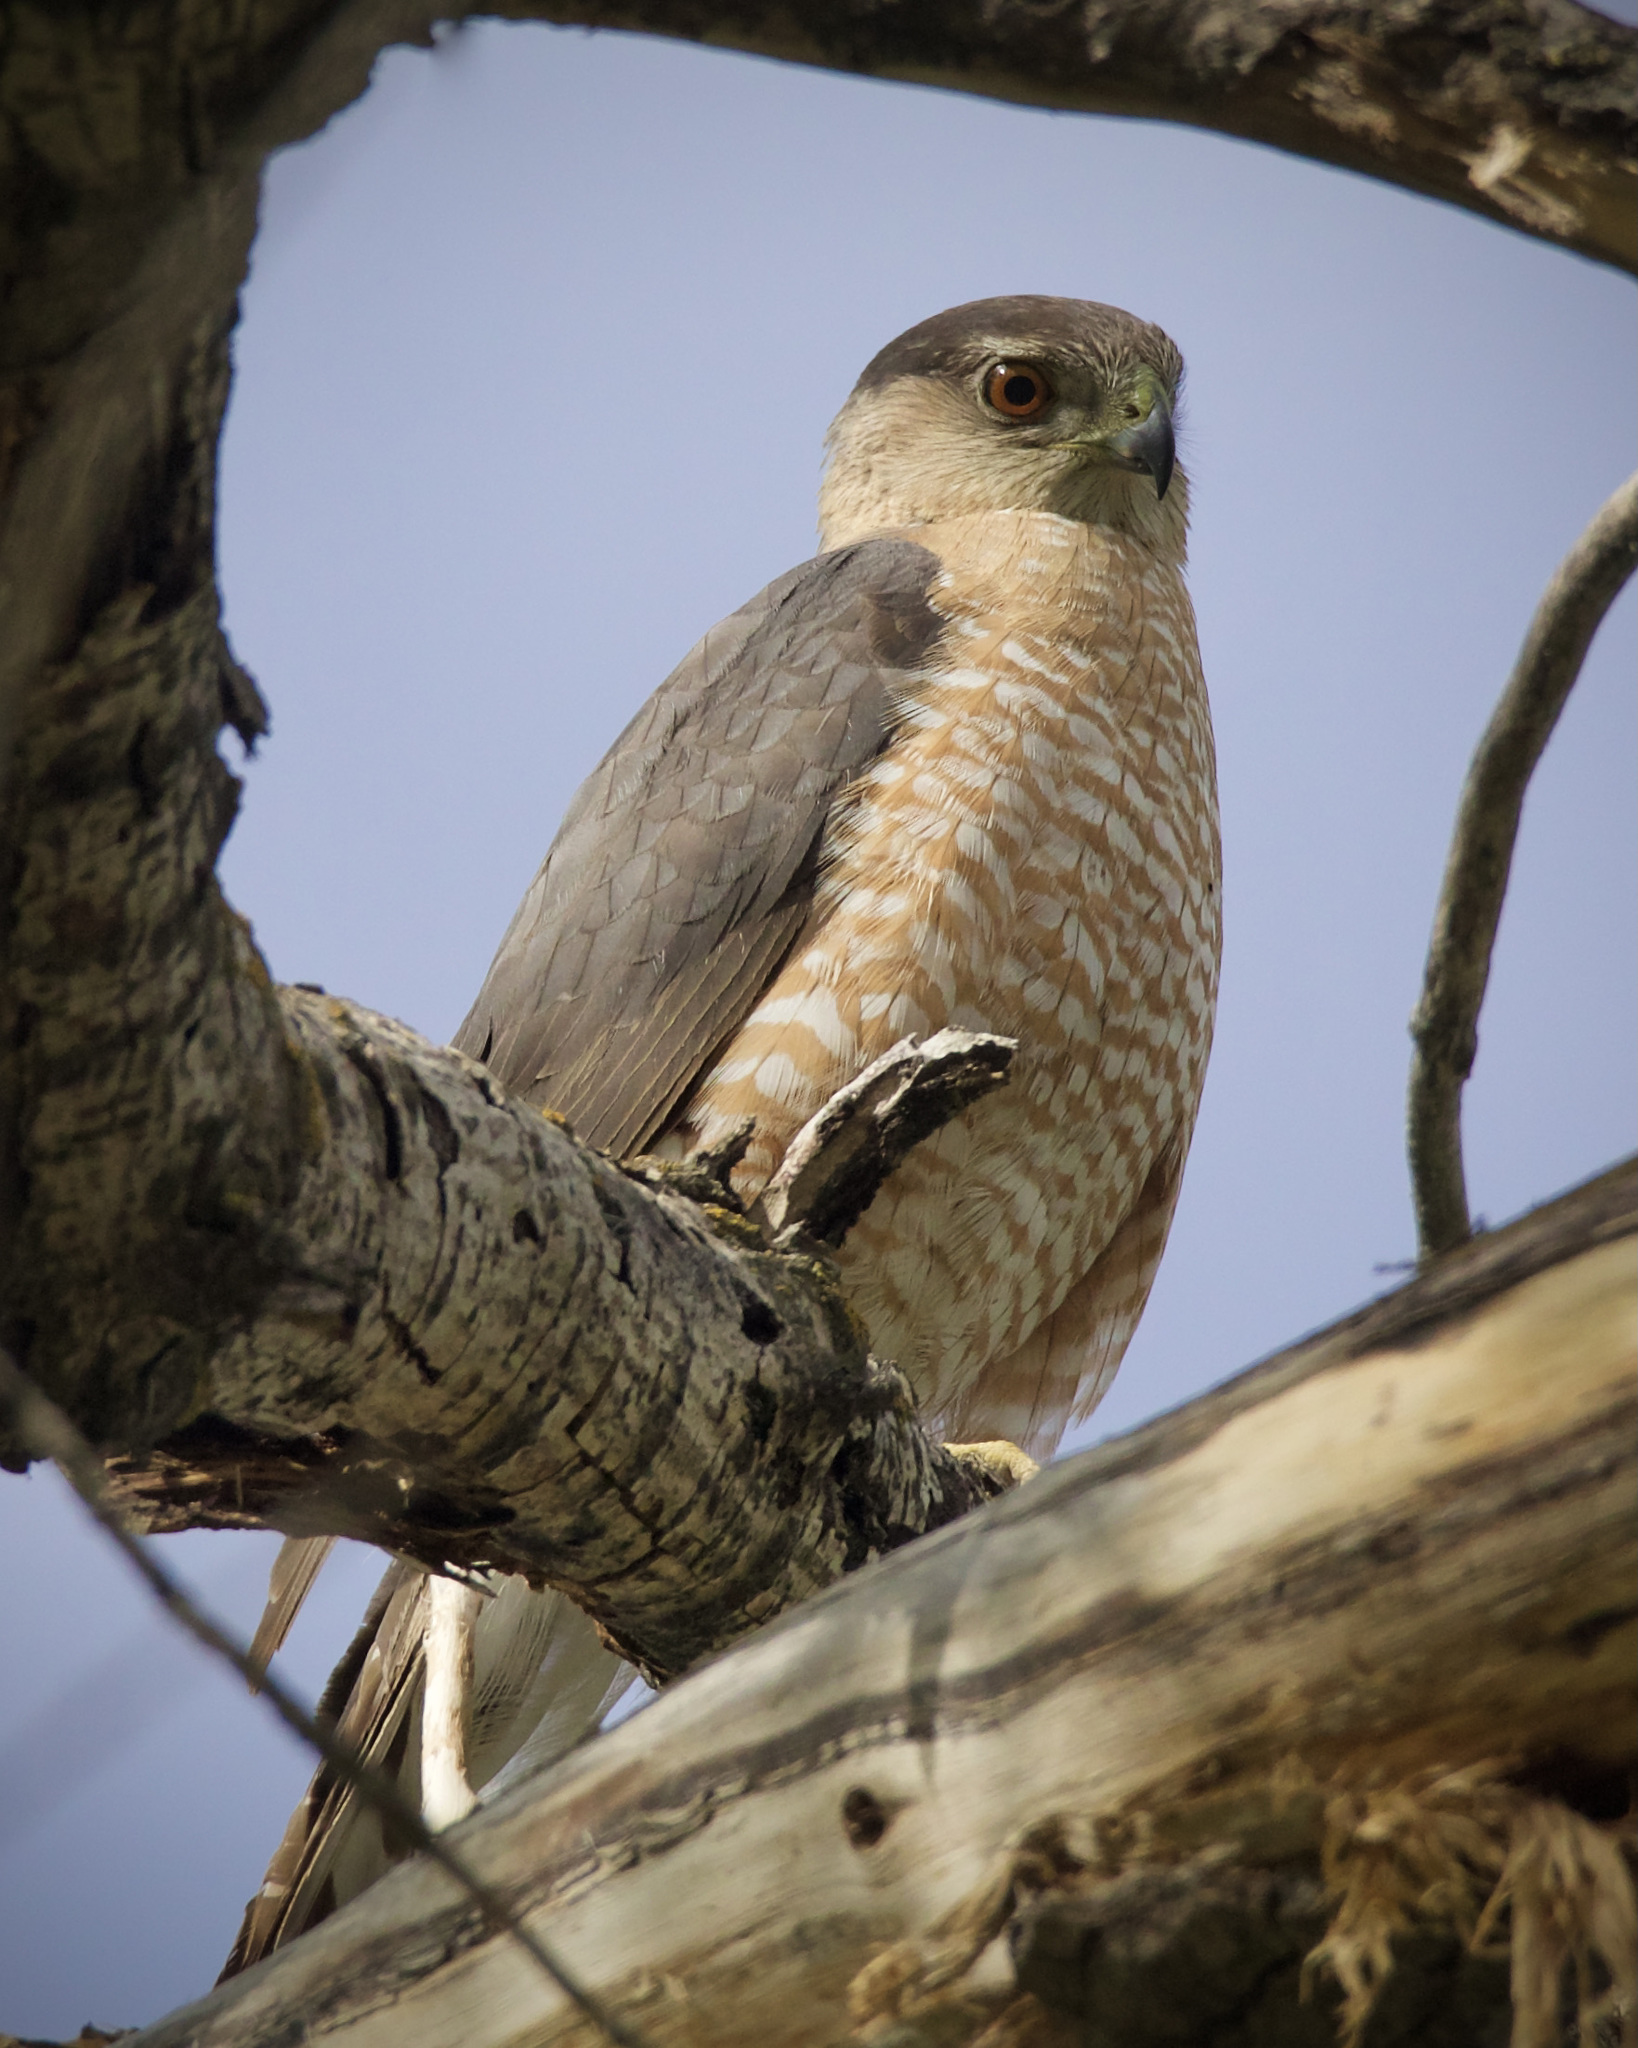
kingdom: Animalia
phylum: Chordata
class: Aves
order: Accipitriformes
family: Accipitridae
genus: Accipiter
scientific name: Accipiter cooperii
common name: Cooper's hawk
